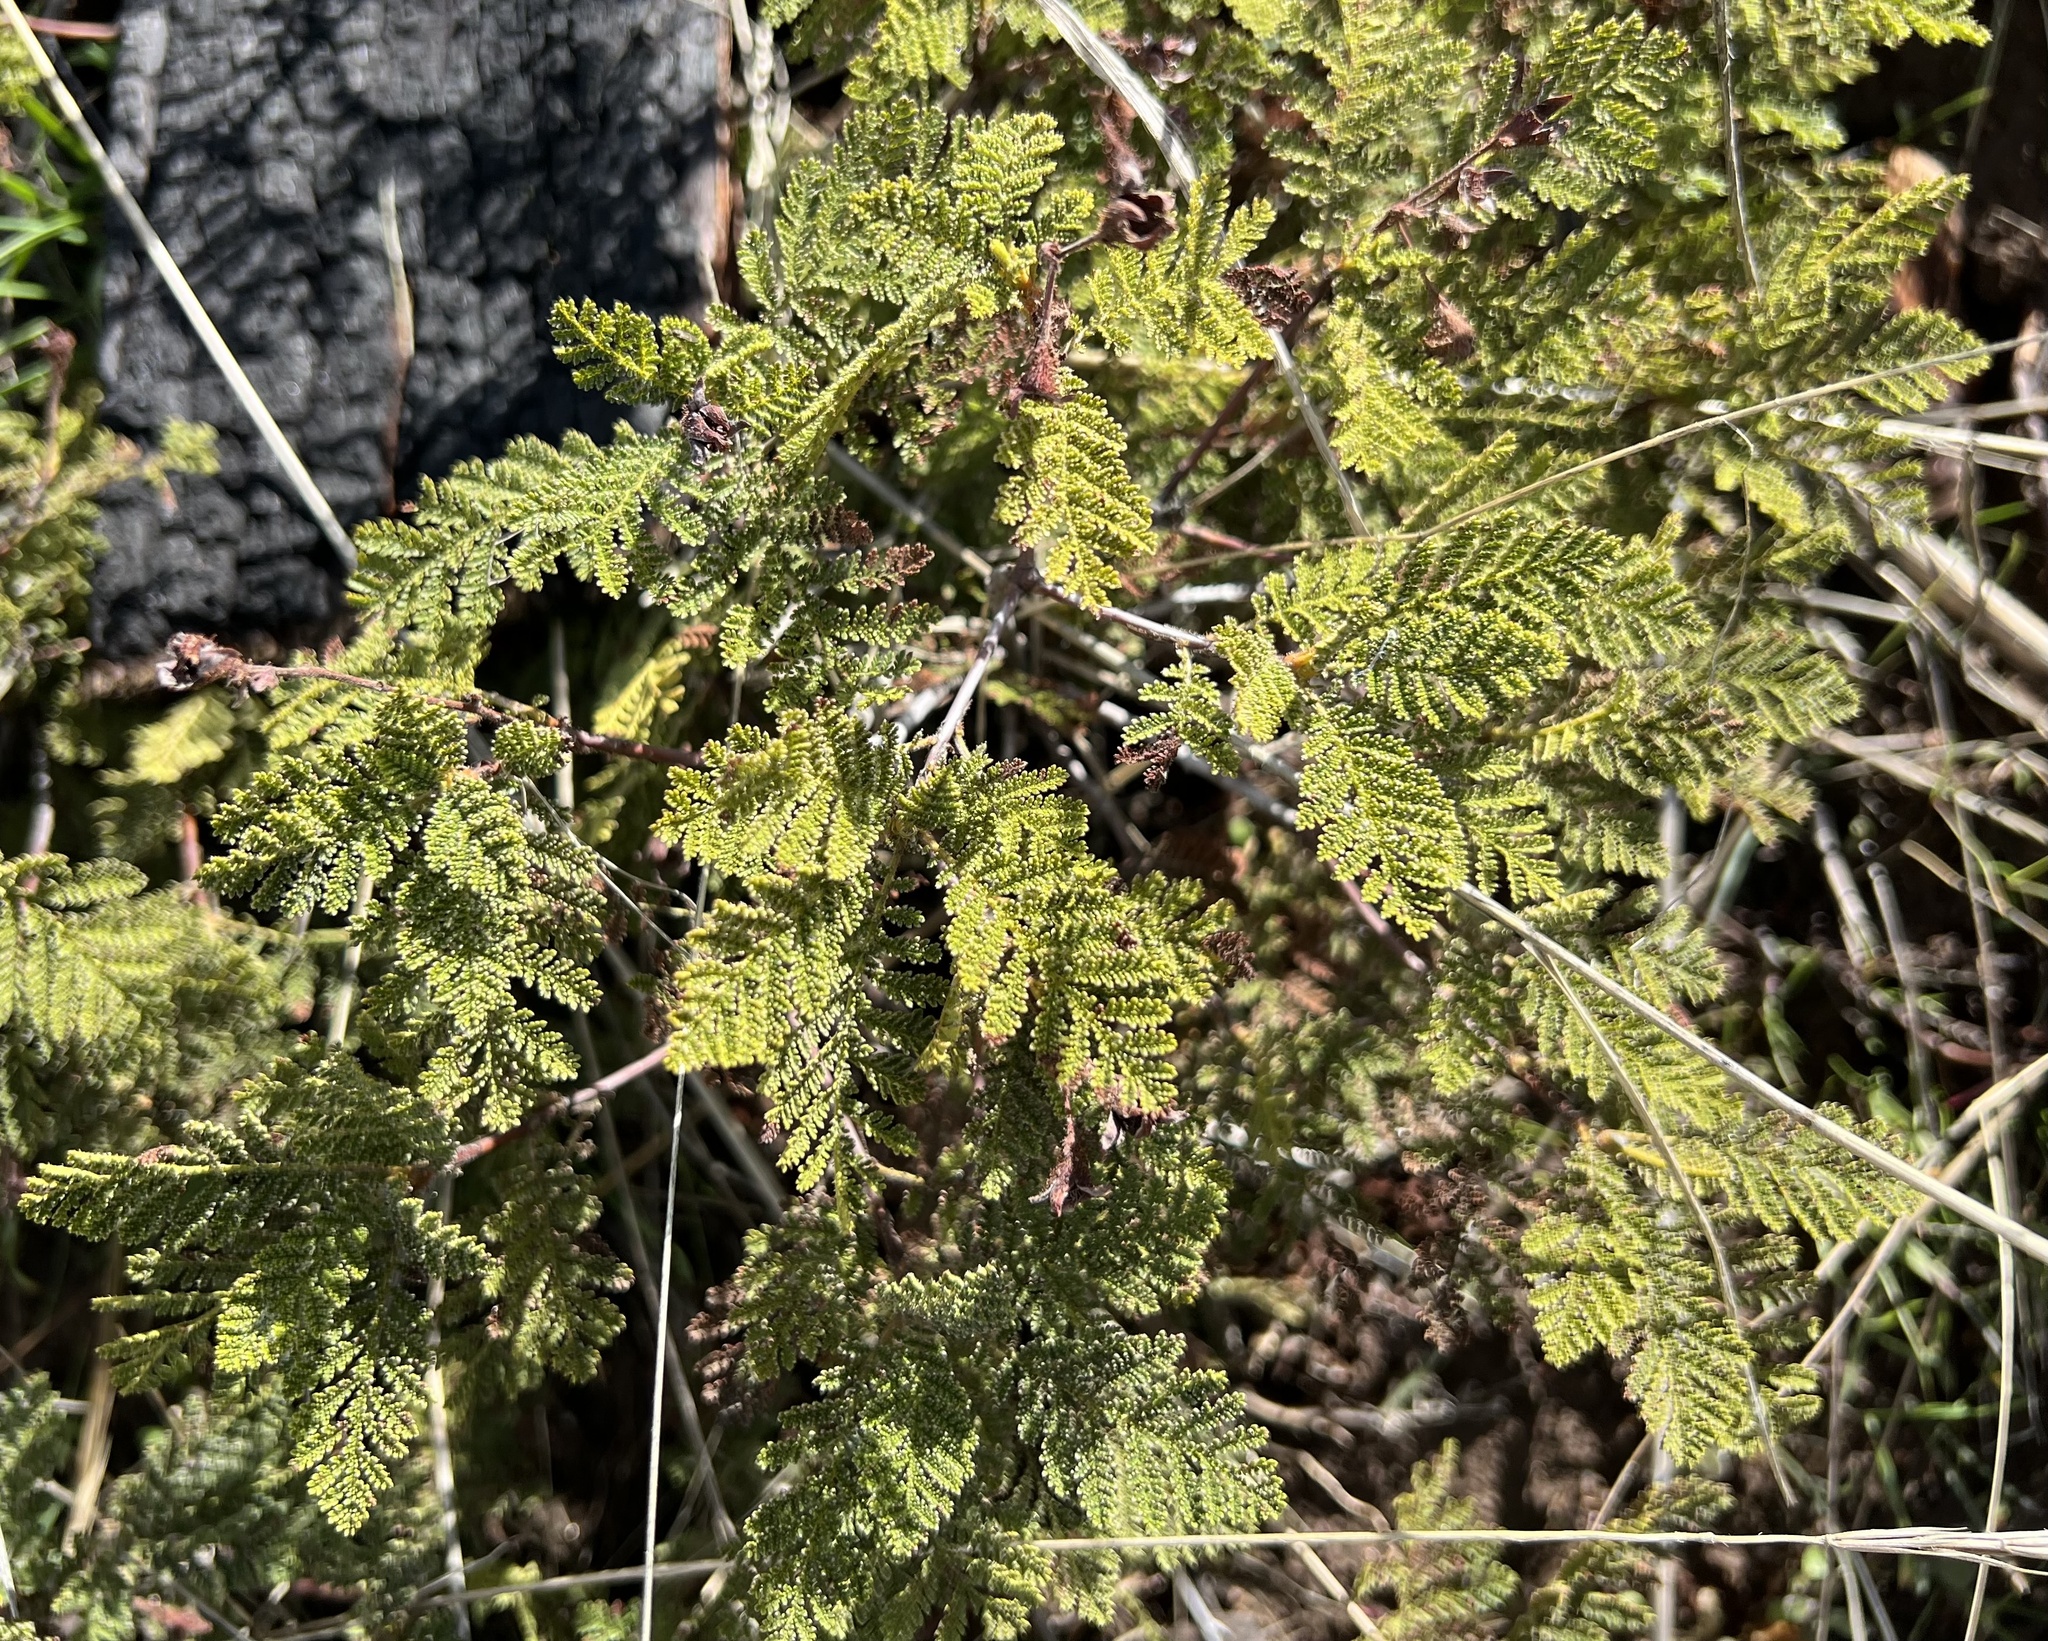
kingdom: Plantae
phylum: Tracheophyta
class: Magnoliopsida
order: Rosales
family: Rosaceae
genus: Chamaebatia
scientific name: Chamaebatia foliolosa
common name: Mountain misery
